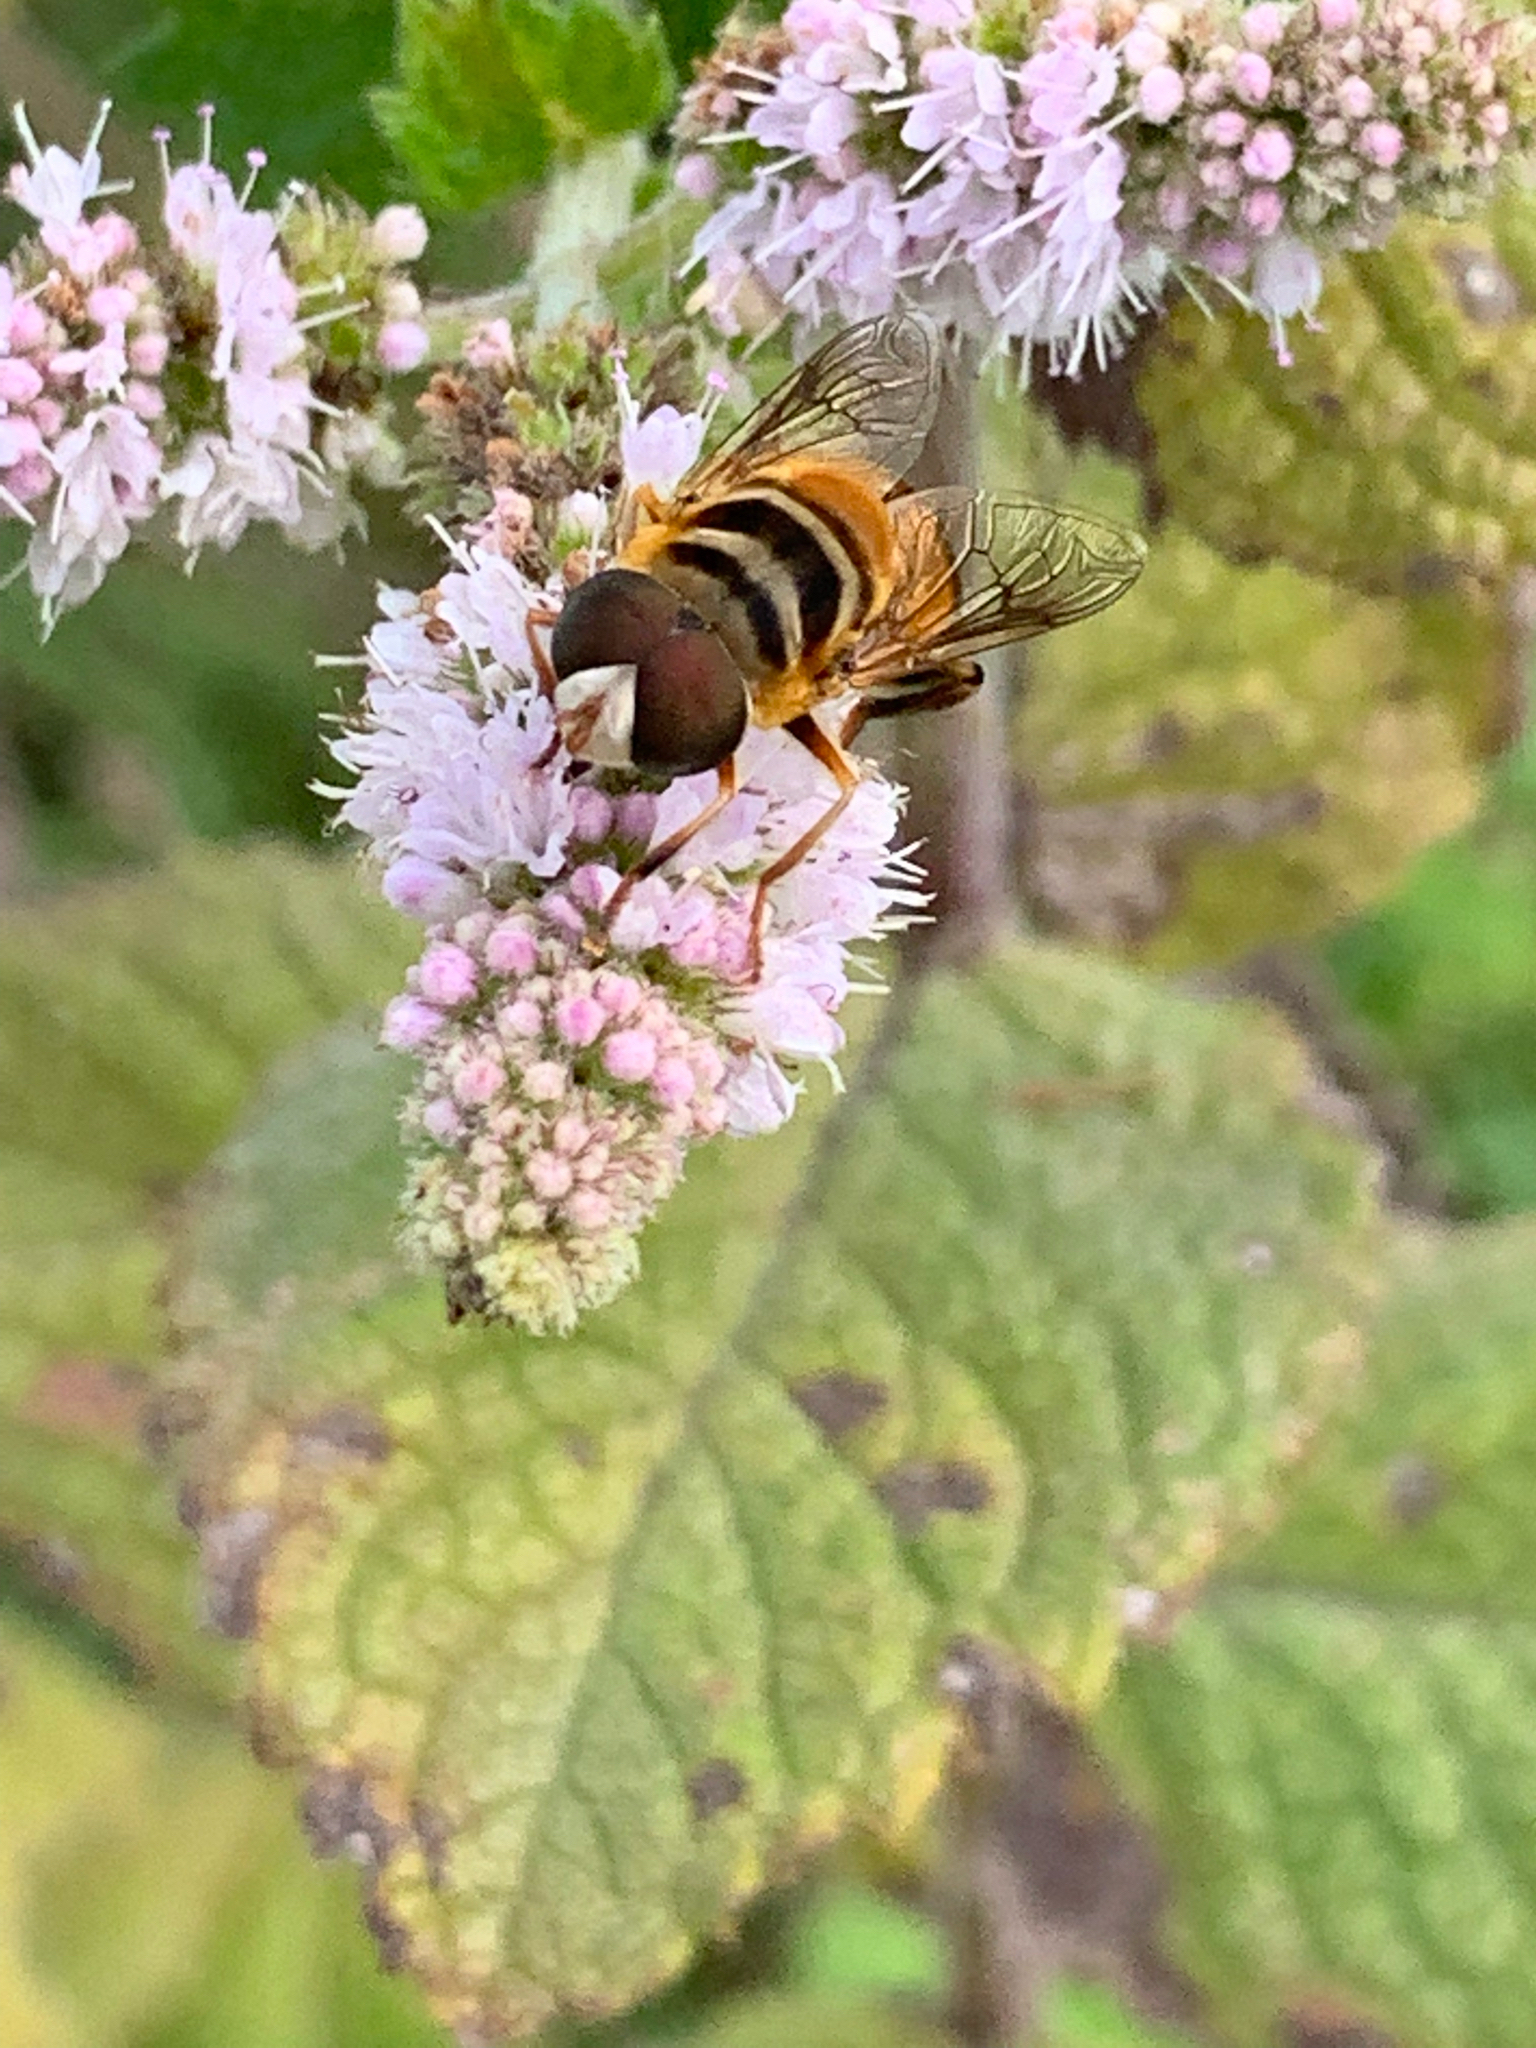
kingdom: Animalia
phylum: Arthropoda
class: Insecta
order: Diptera
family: Syrphidae
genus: Palpada
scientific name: Palpada vinetorum
